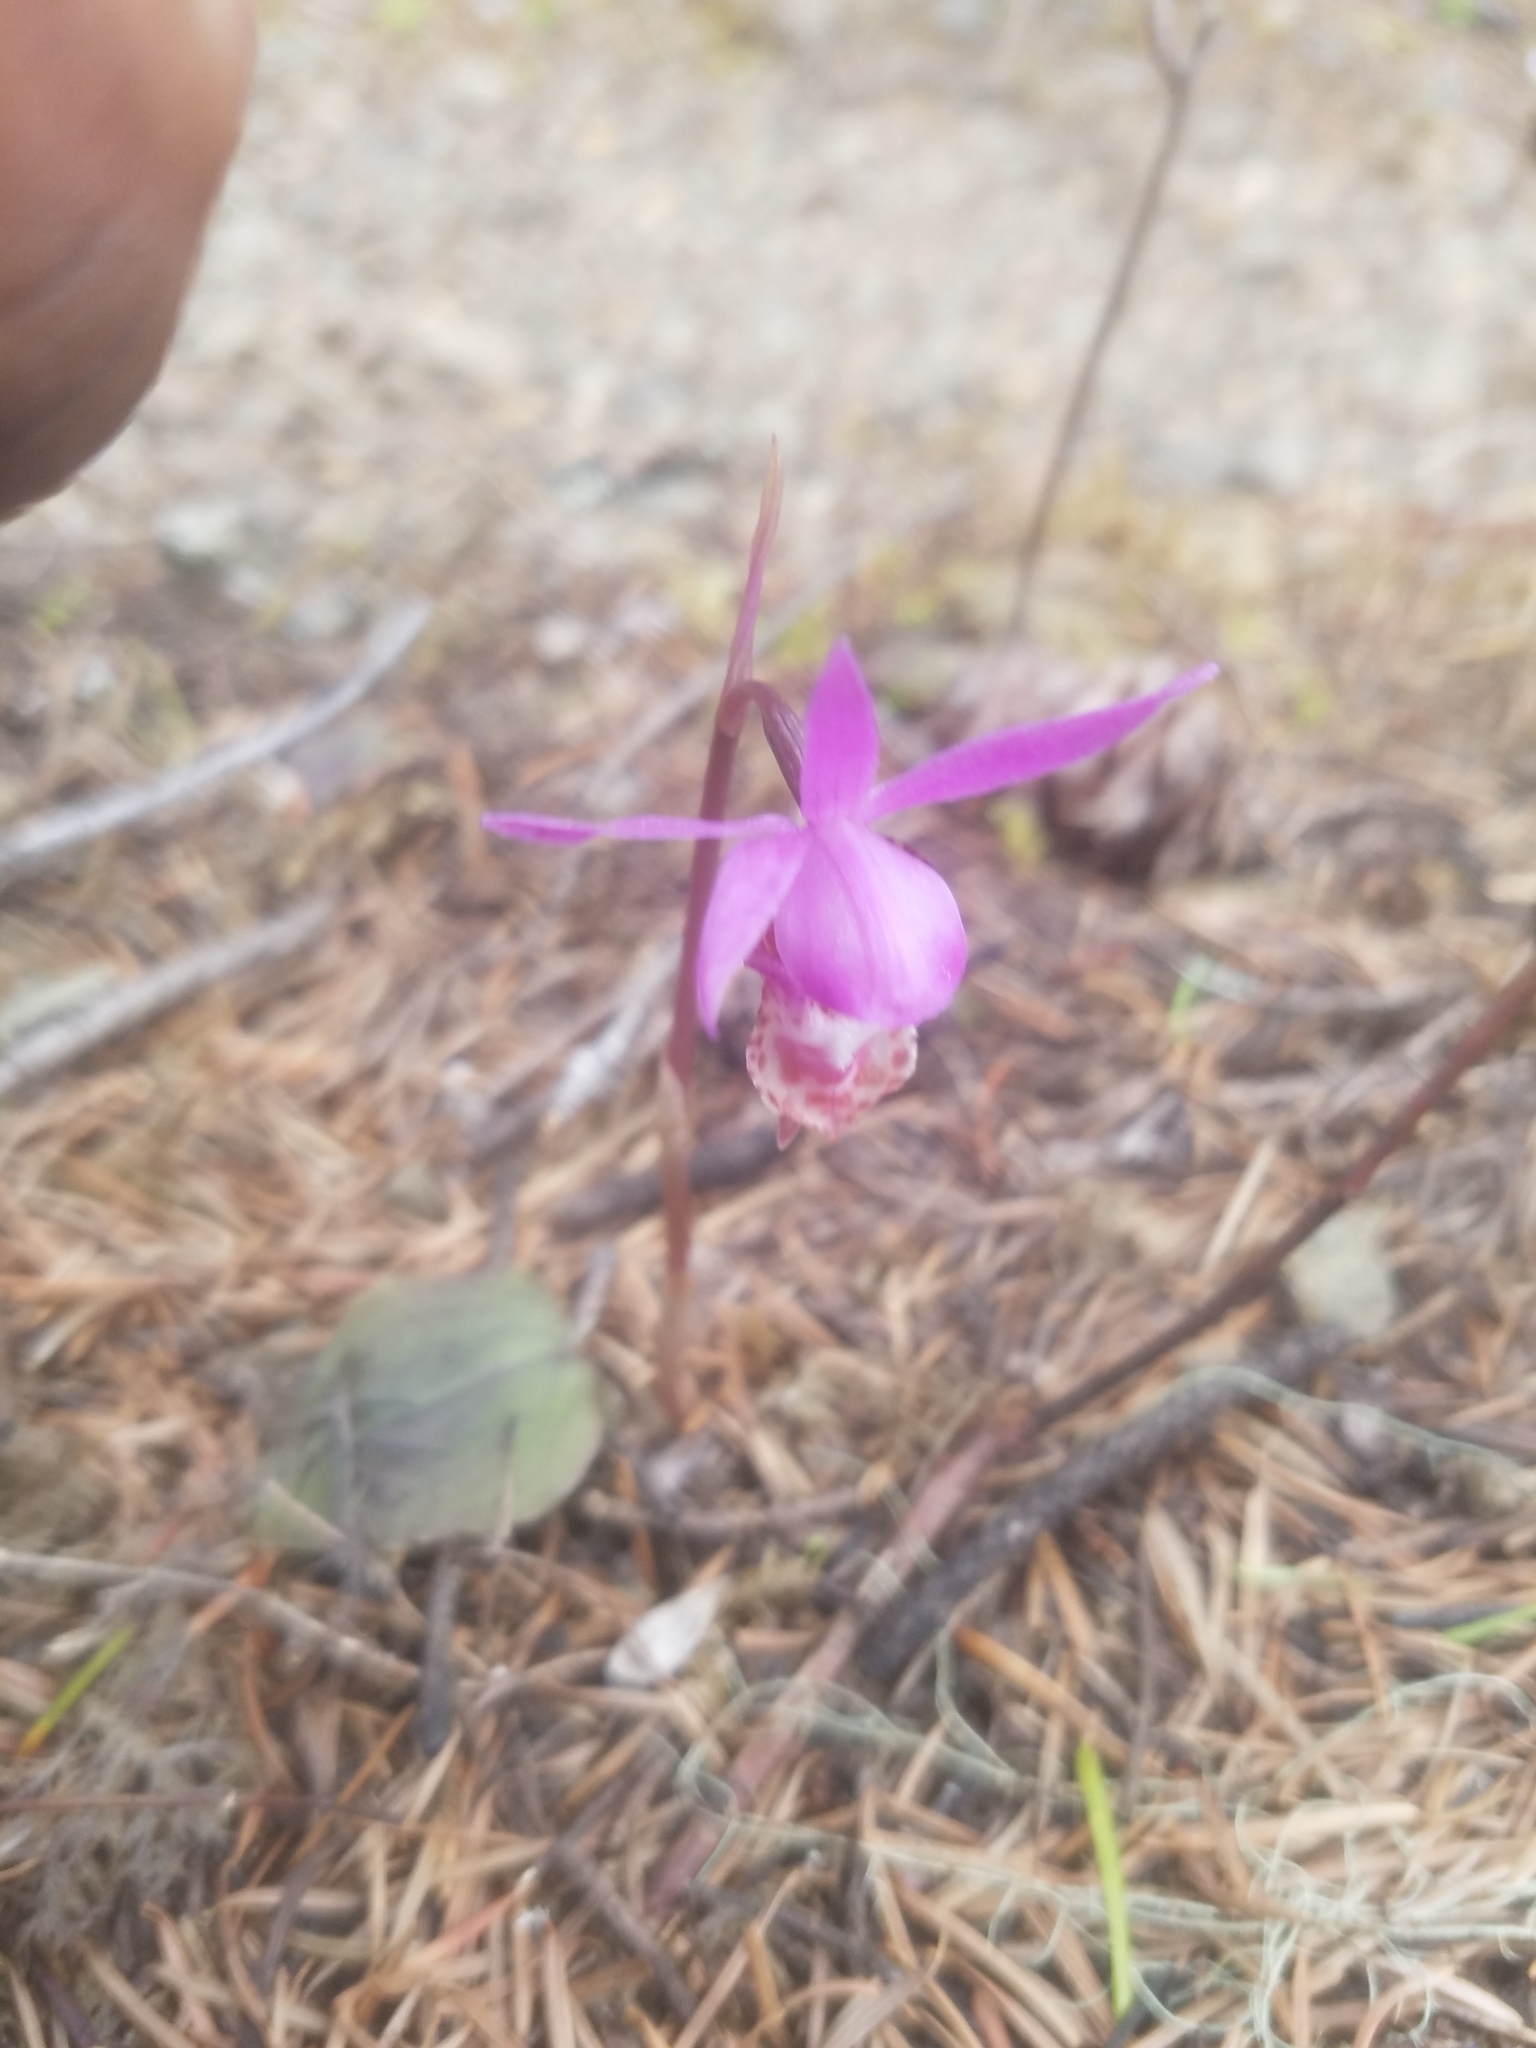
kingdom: Plantae
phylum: Tracheophyta
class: Liliopsida
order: Asparagales
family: Orchidaceae
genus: Calypso
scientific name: Calypso bulbosa
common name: Calypso
